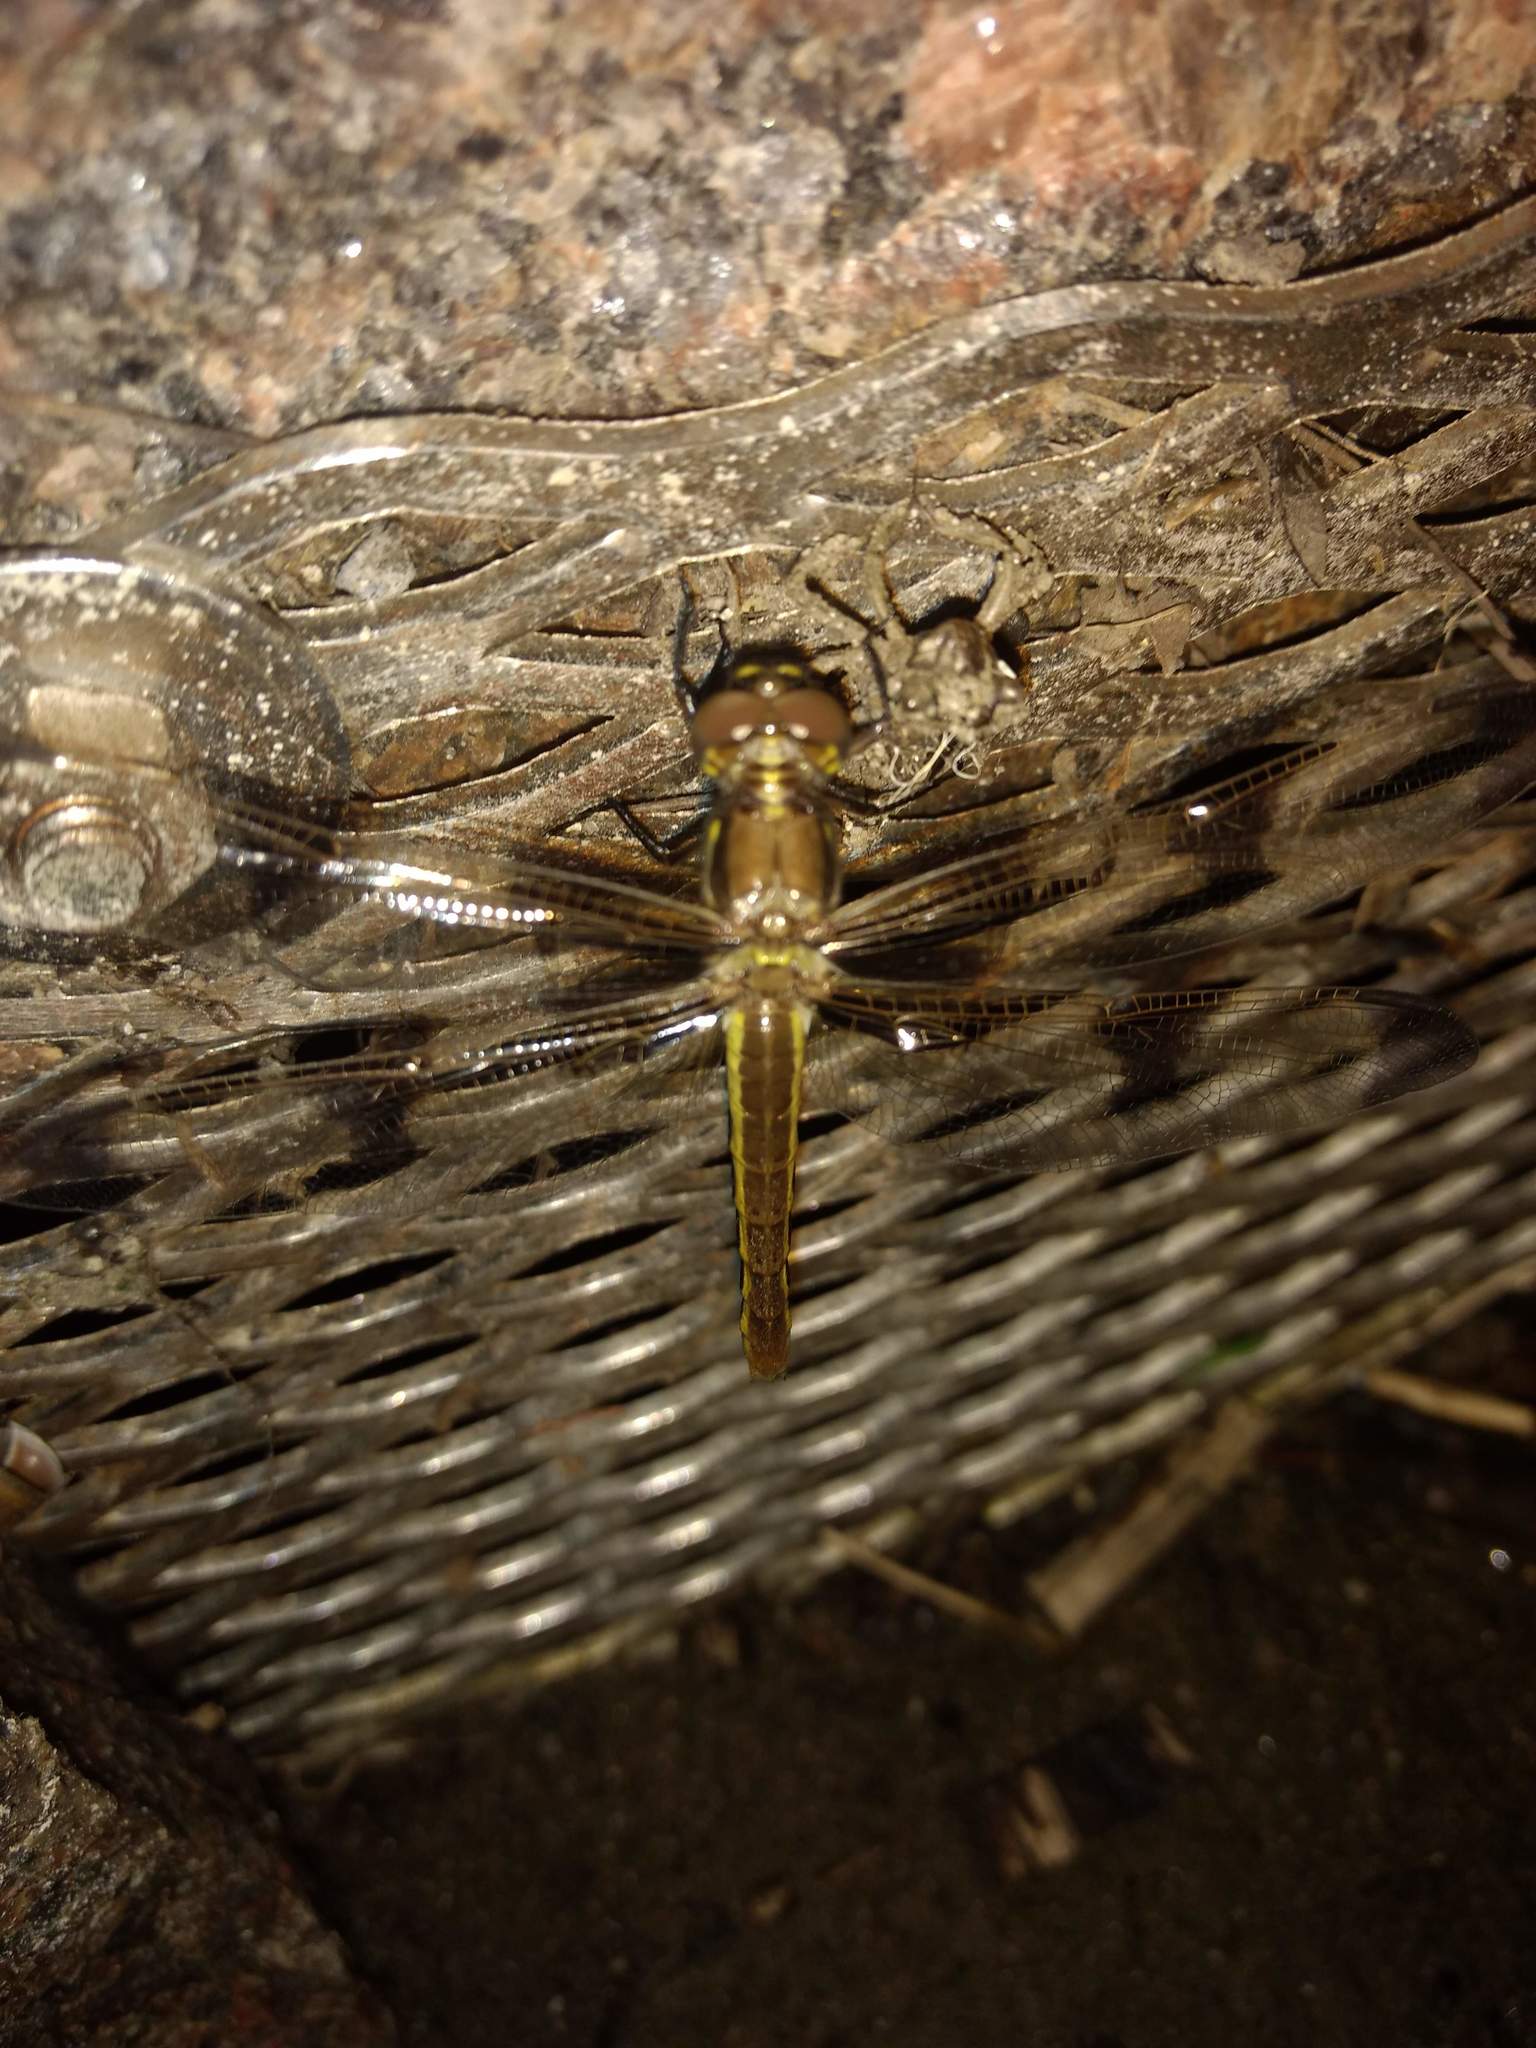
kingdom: Animalia
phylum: Arthropoda
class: Insecta
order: Odonata
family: Libellulidae
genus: Libellula
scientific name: Libellula pulchella
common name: Twelve-spotted skimmer
